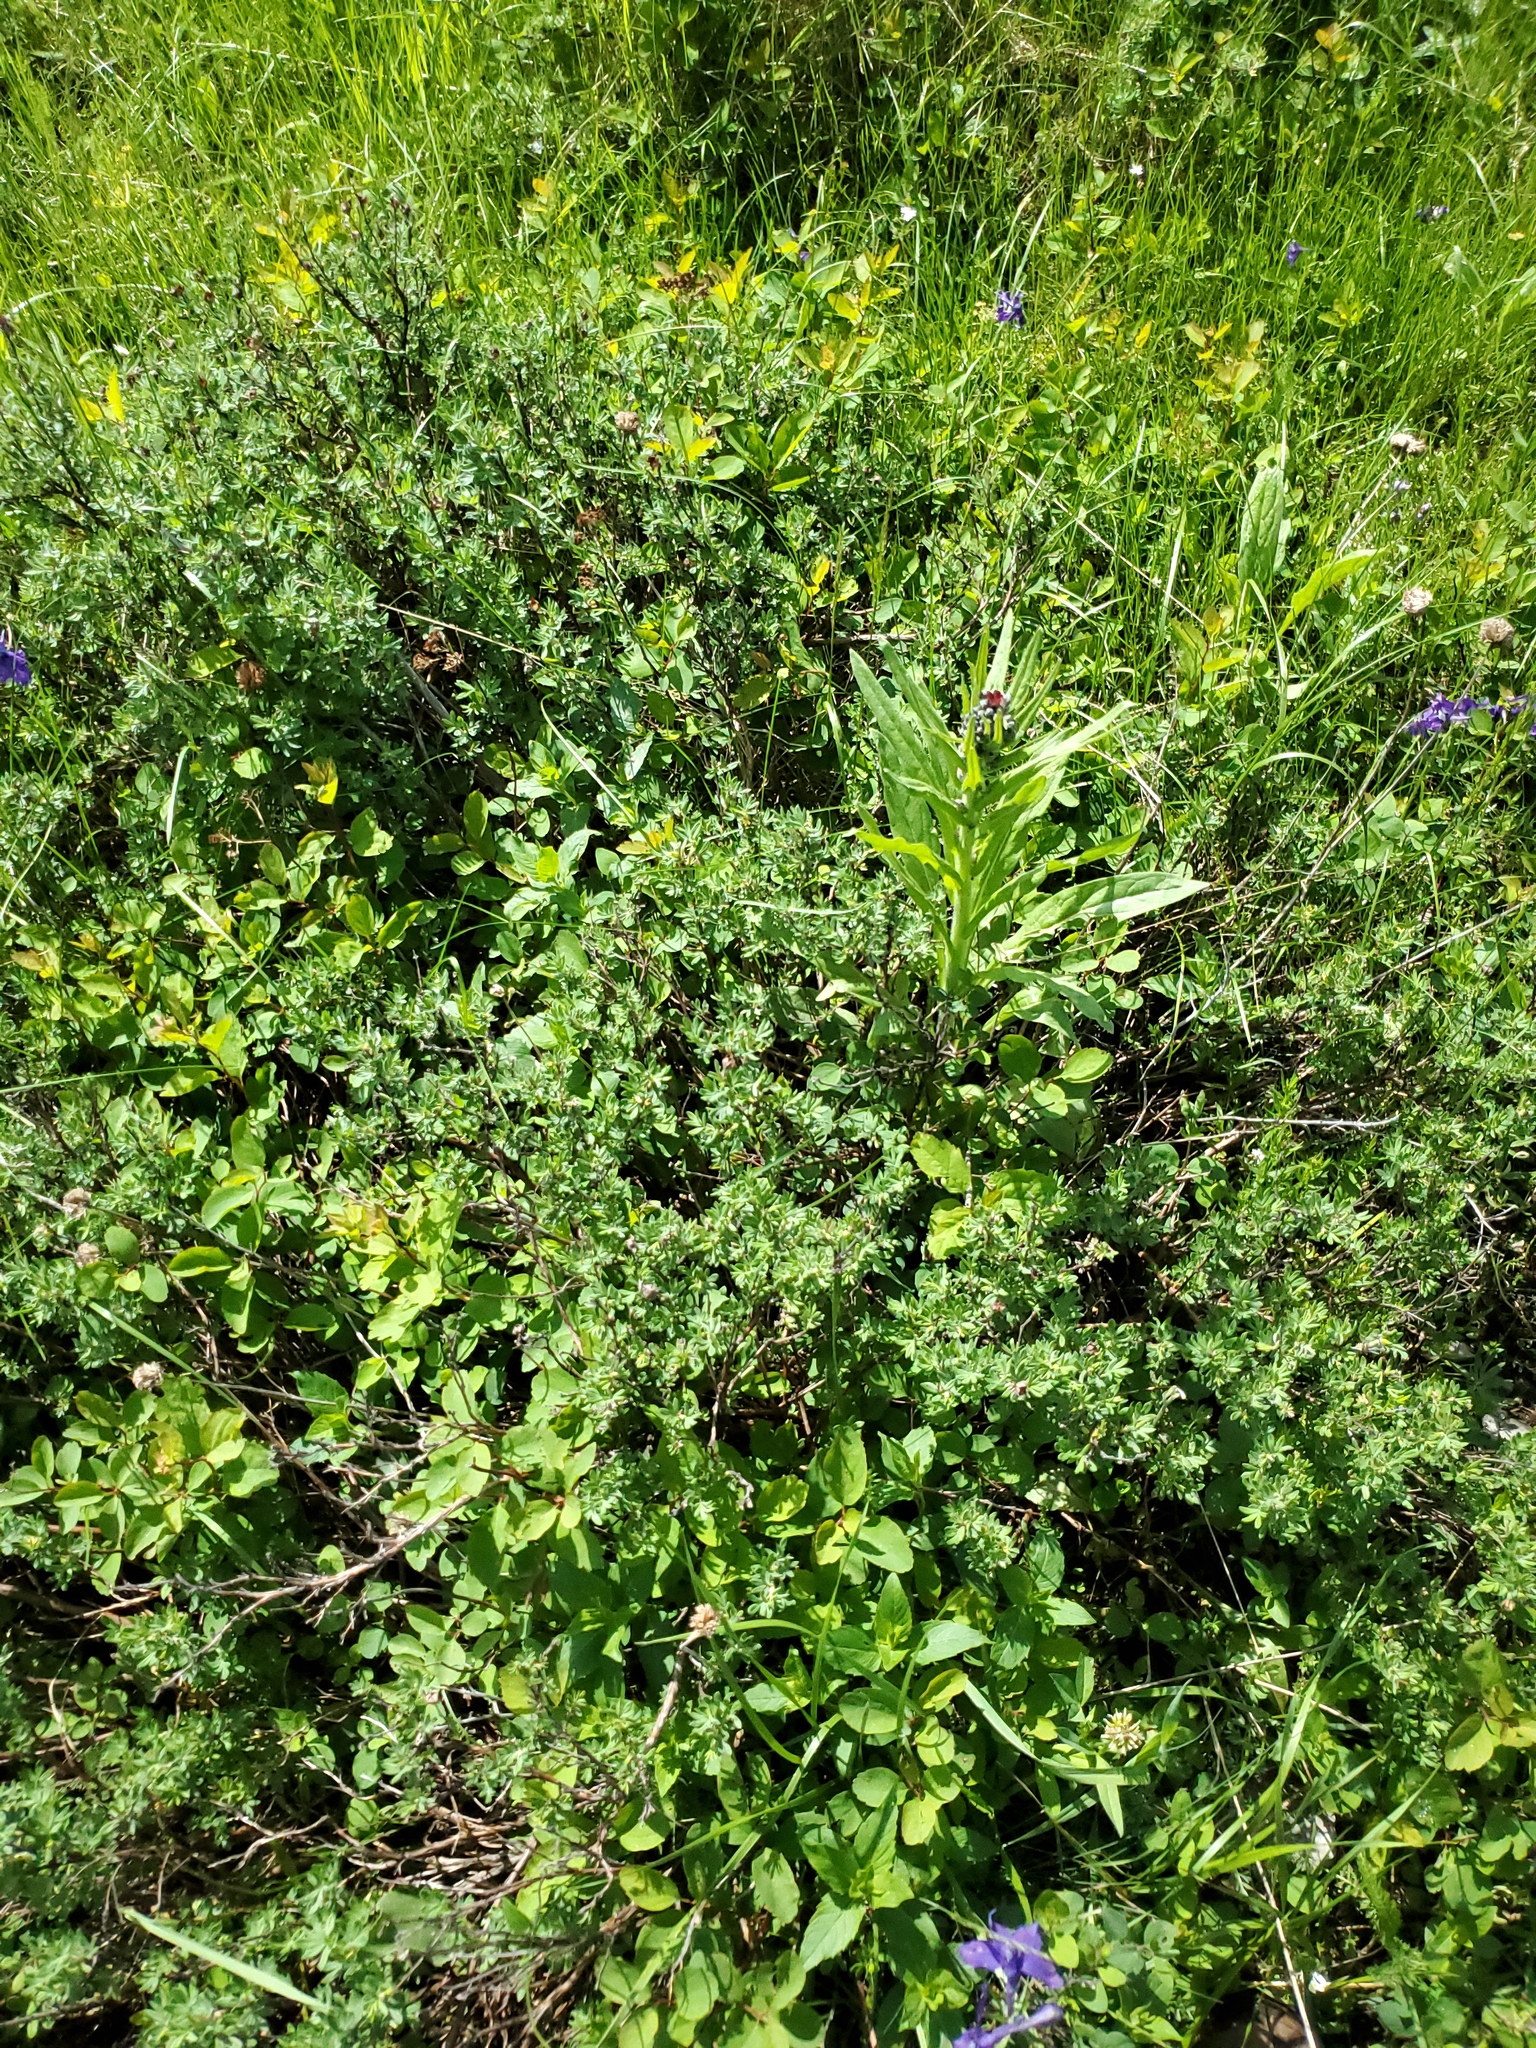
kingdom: Plantae
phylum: Tracheophyta
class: Magnoliopsida
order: Boraginales
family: Boraginaceae
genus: Cynoglossum
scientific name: Cynoglossum officinale
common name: Hound's-tongue
